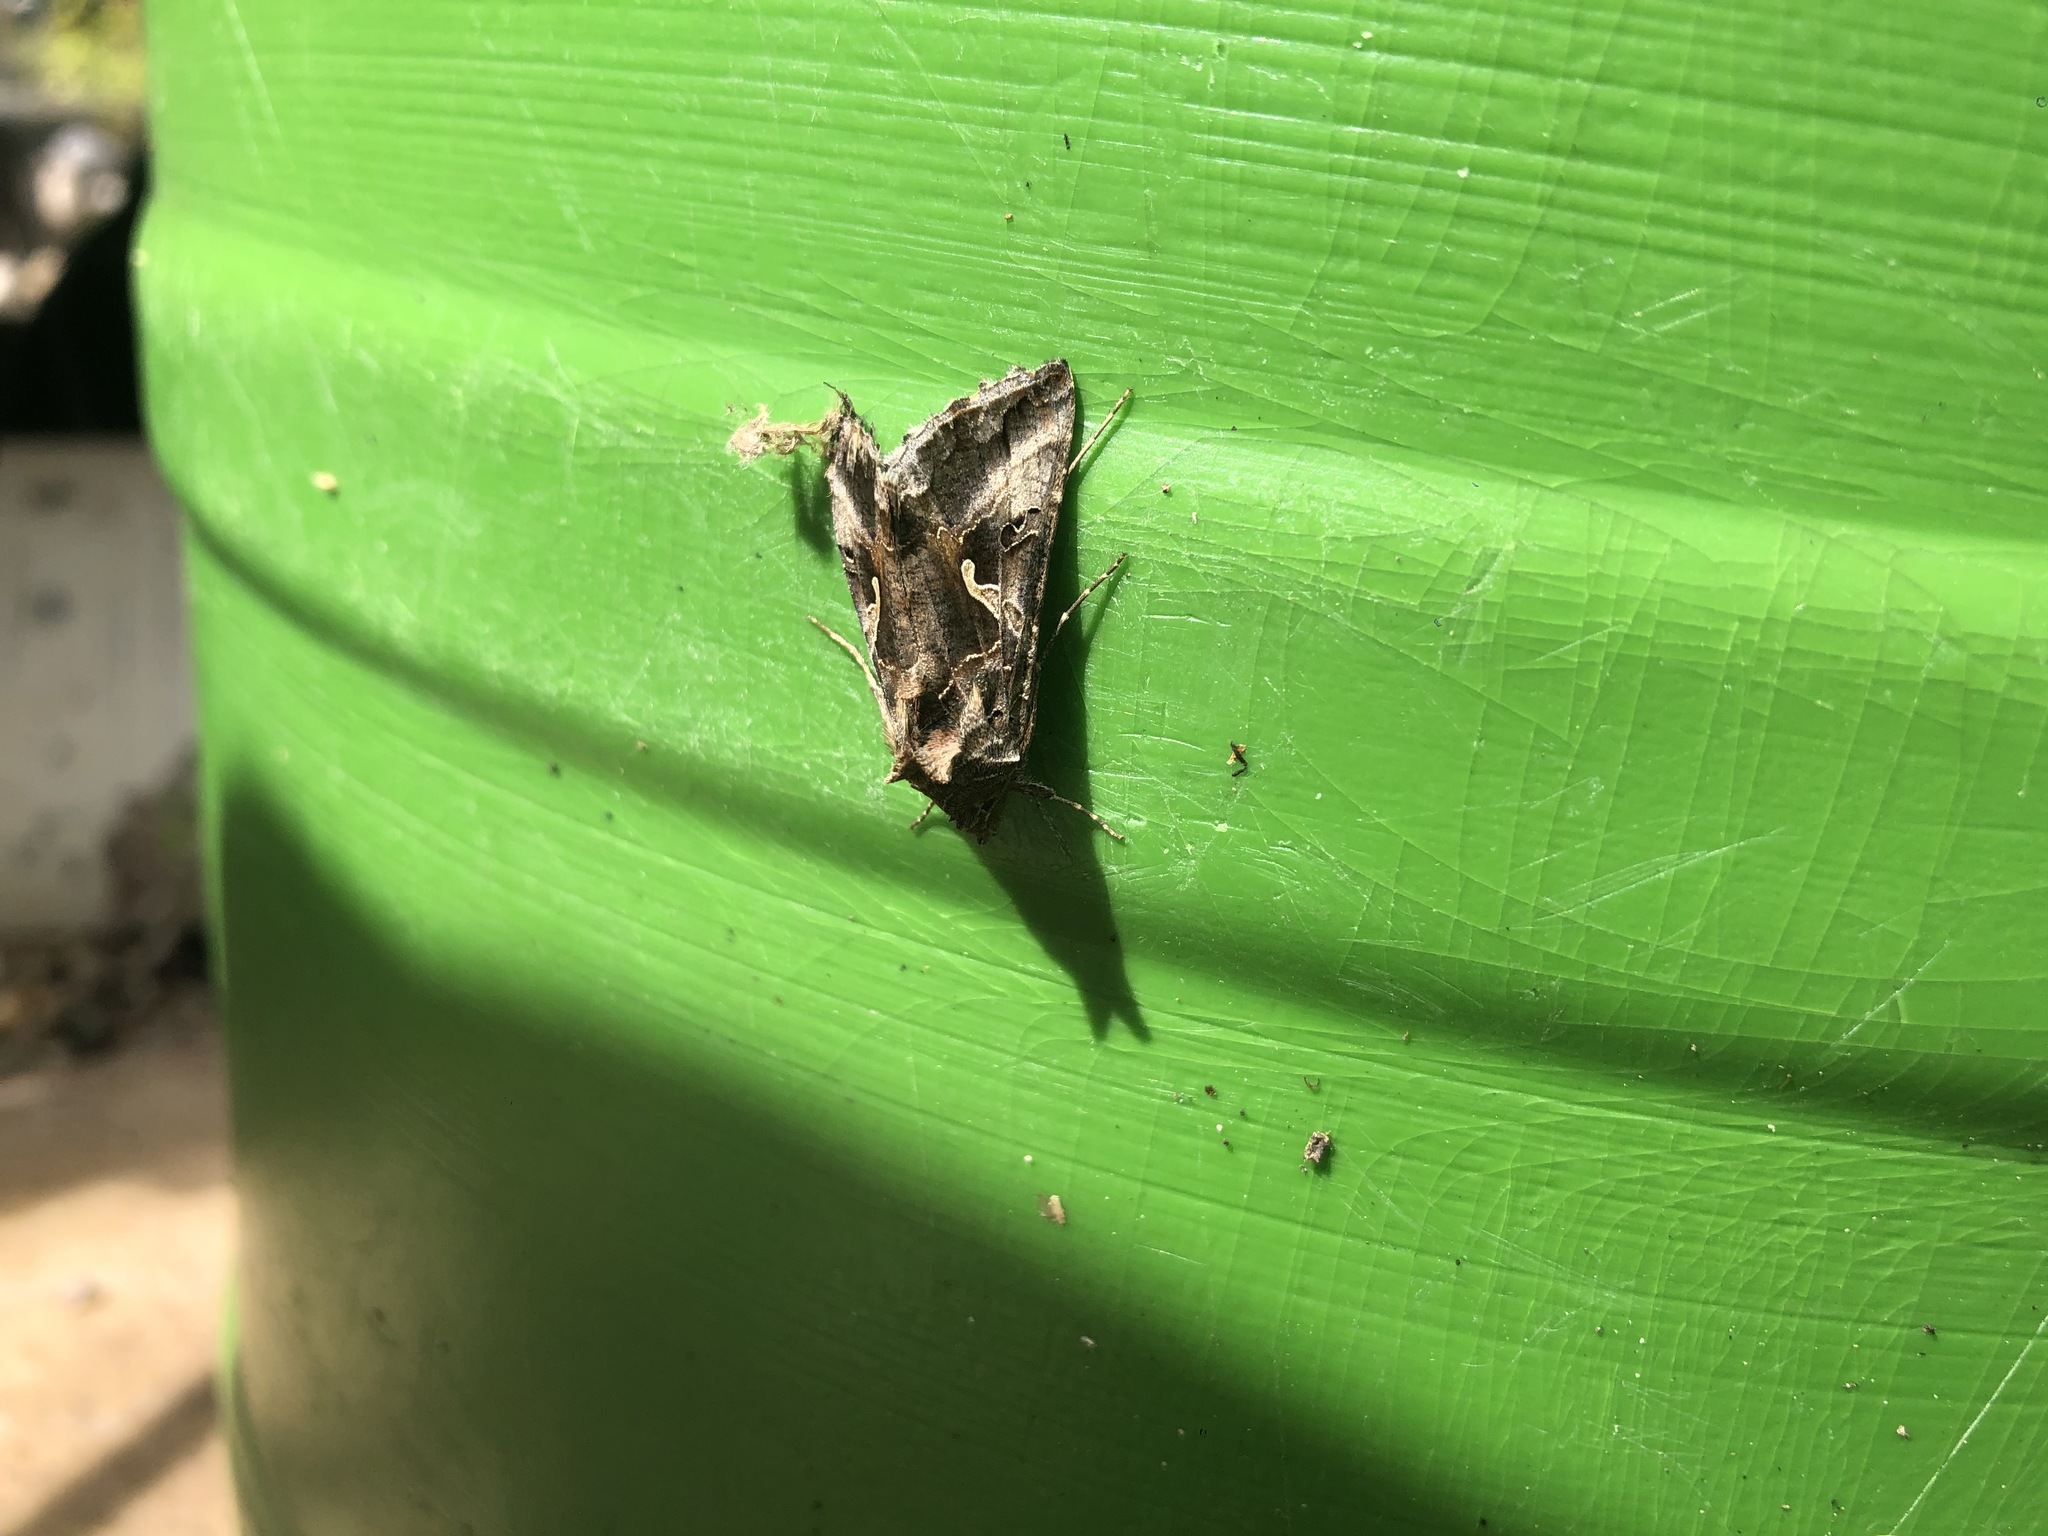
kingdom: Animalia
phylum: Arthropoda
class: Insecta
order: Lepidoptera
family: Noctuidae
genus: Autographa
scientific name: Autographa gamma
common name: Silver y
